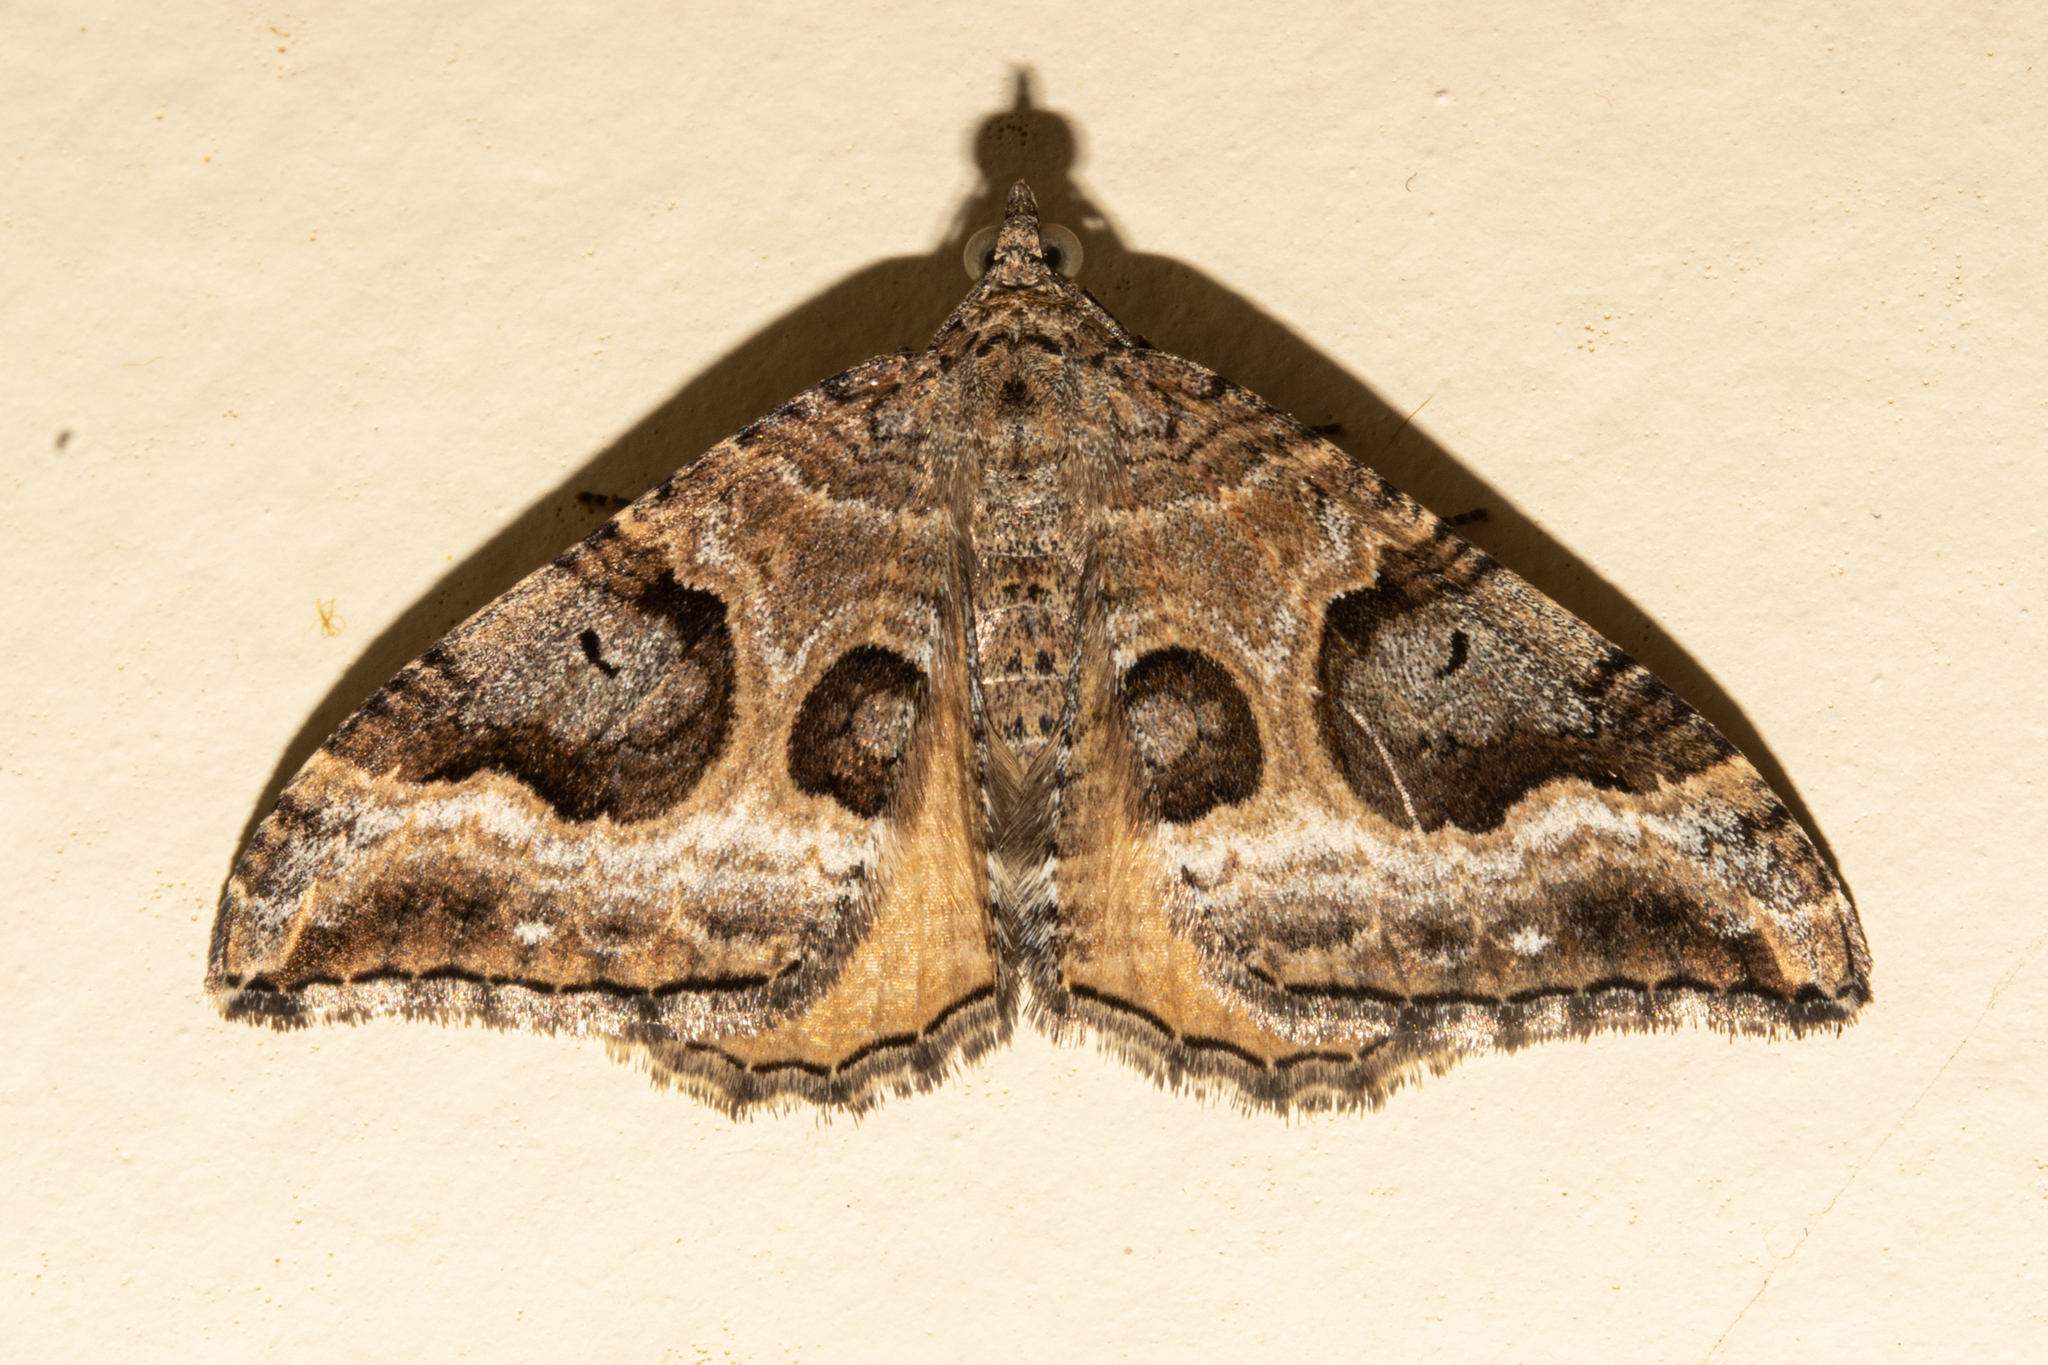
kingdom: Animalia
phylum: Arthropoda
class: Insecta
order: Lepidoptera
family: Geometridae
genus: Hydriomena
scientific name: Hydriomena deltoidata
